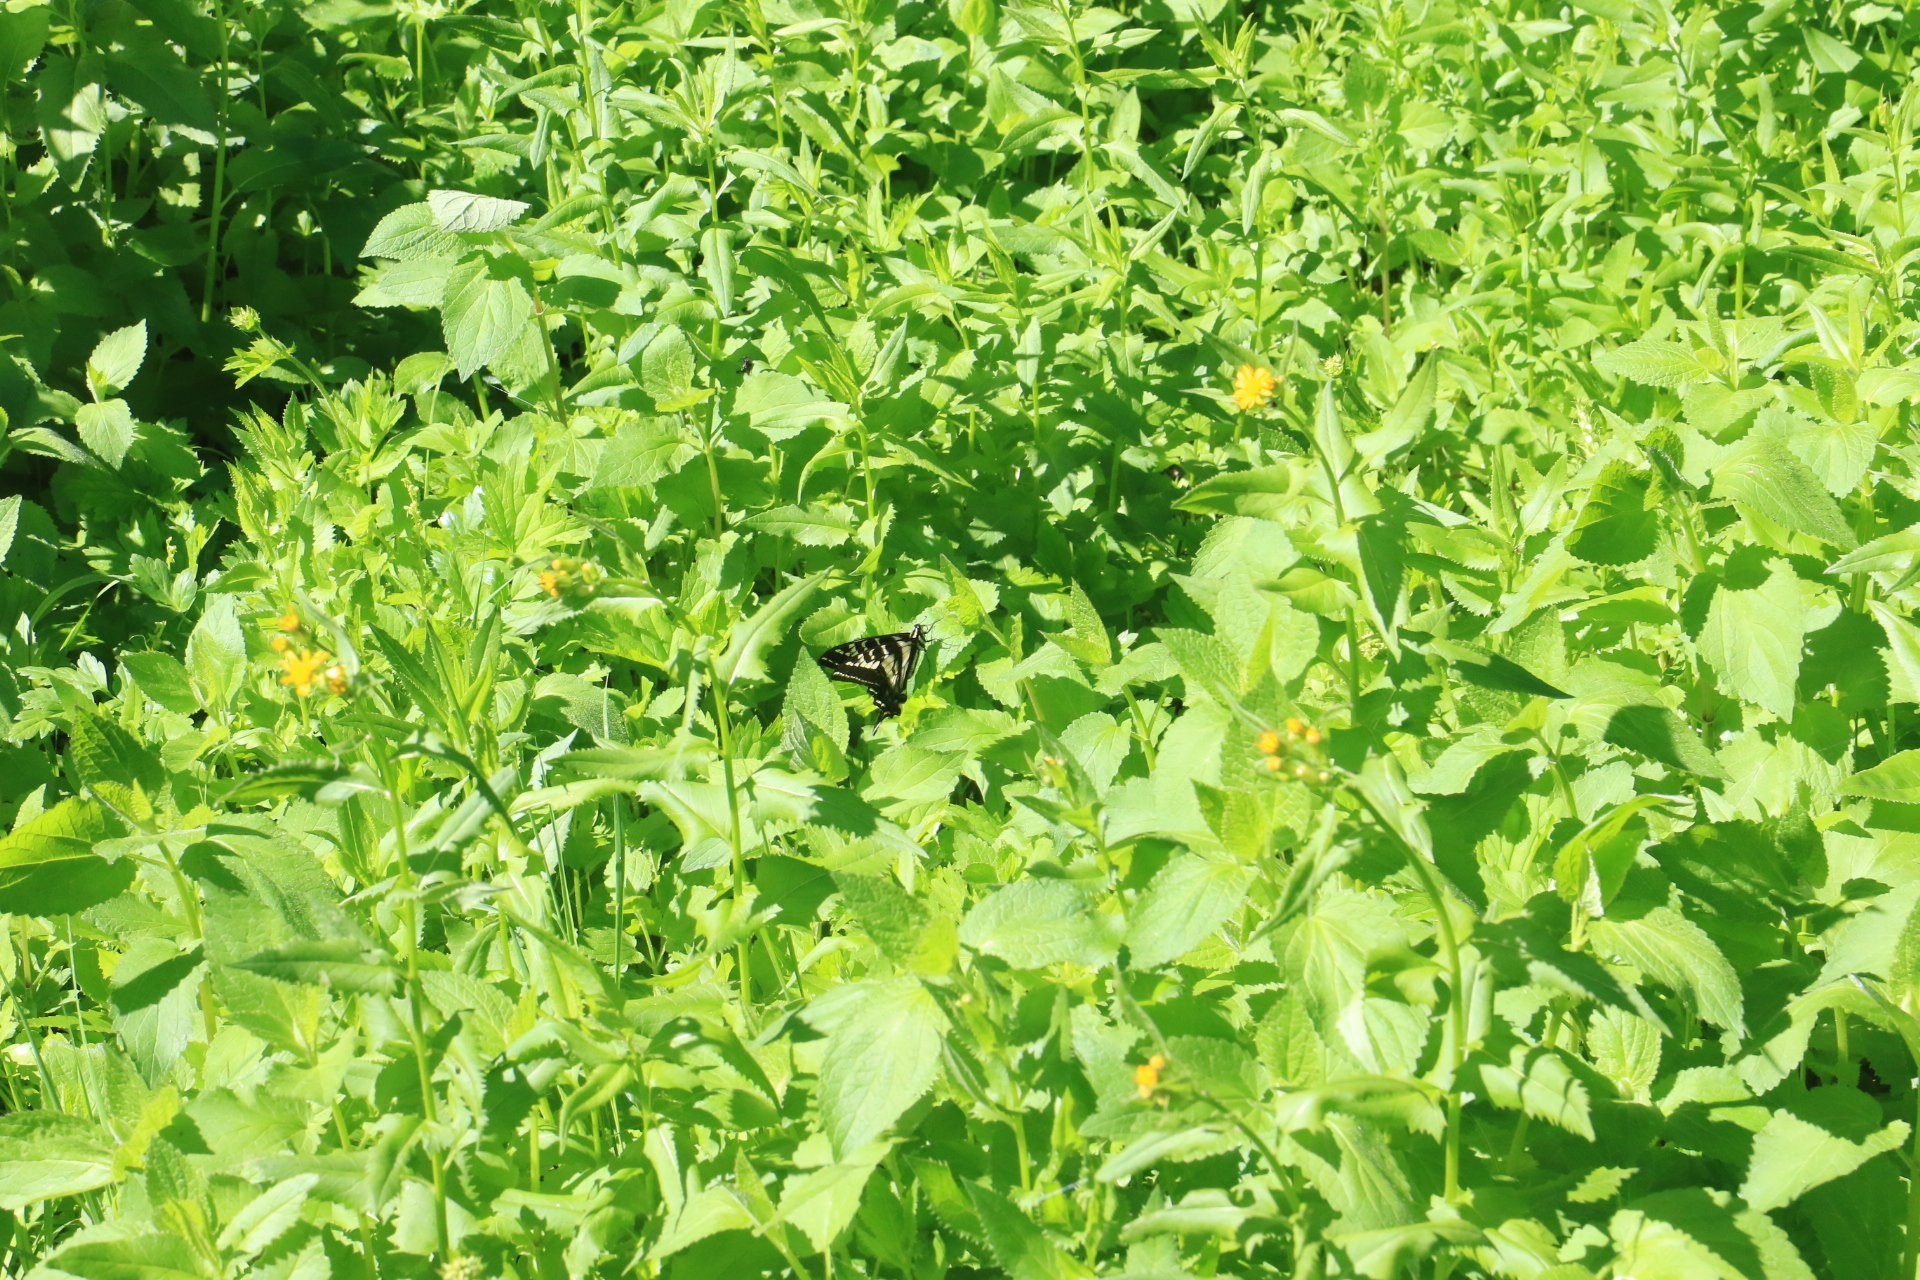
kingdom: Animalia
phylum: Arthropoda
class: Insecta
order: Lepidoptera
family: Papilionidae
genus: Papilio
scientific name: Papilio eurymedon
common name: Pale tiger swallowtail
